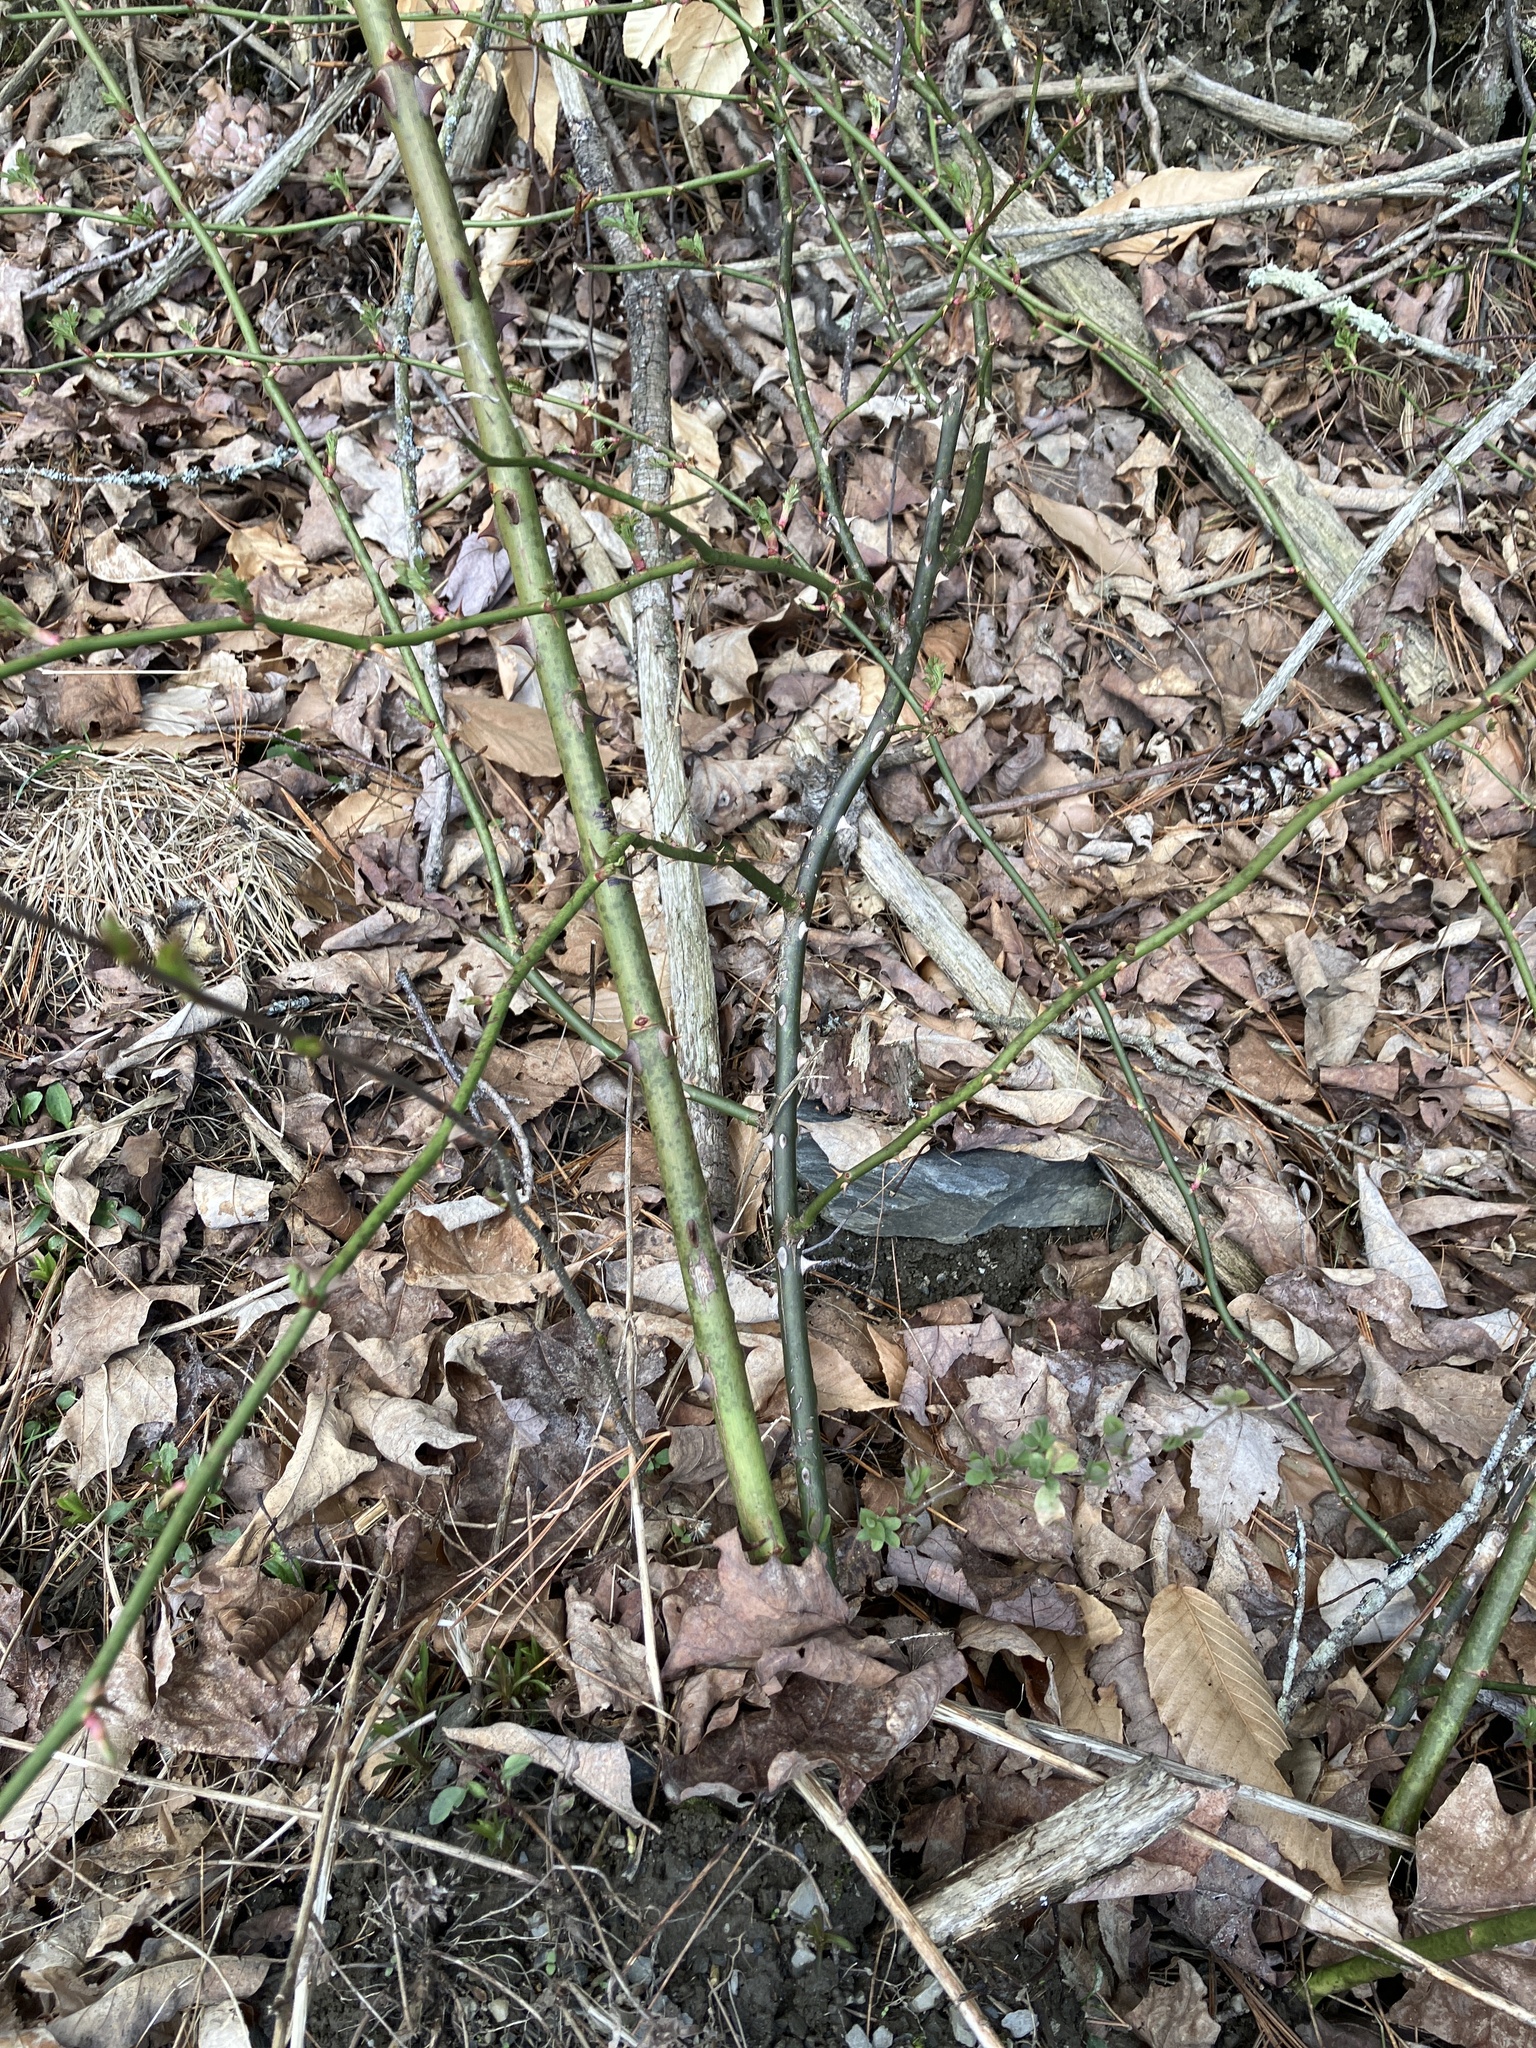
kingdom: Plantae
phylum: Tracheophyta
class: Magnoliopsida
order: Rosales
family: Rosaceae
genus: Rosa
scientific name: Rosa multiflora
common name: Multiflora rose
